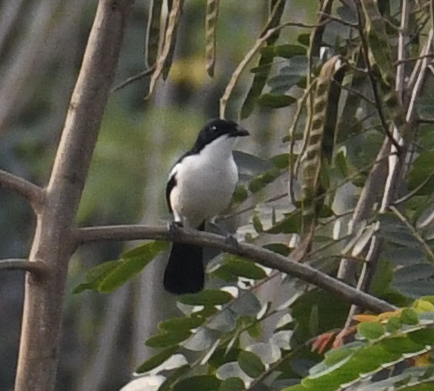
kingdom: Animalia
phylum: Chordata
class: Aves
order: Passeriformes
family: Malaconotidae
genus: Laniarius
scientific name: Laniarius major
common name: Tropical boubou
